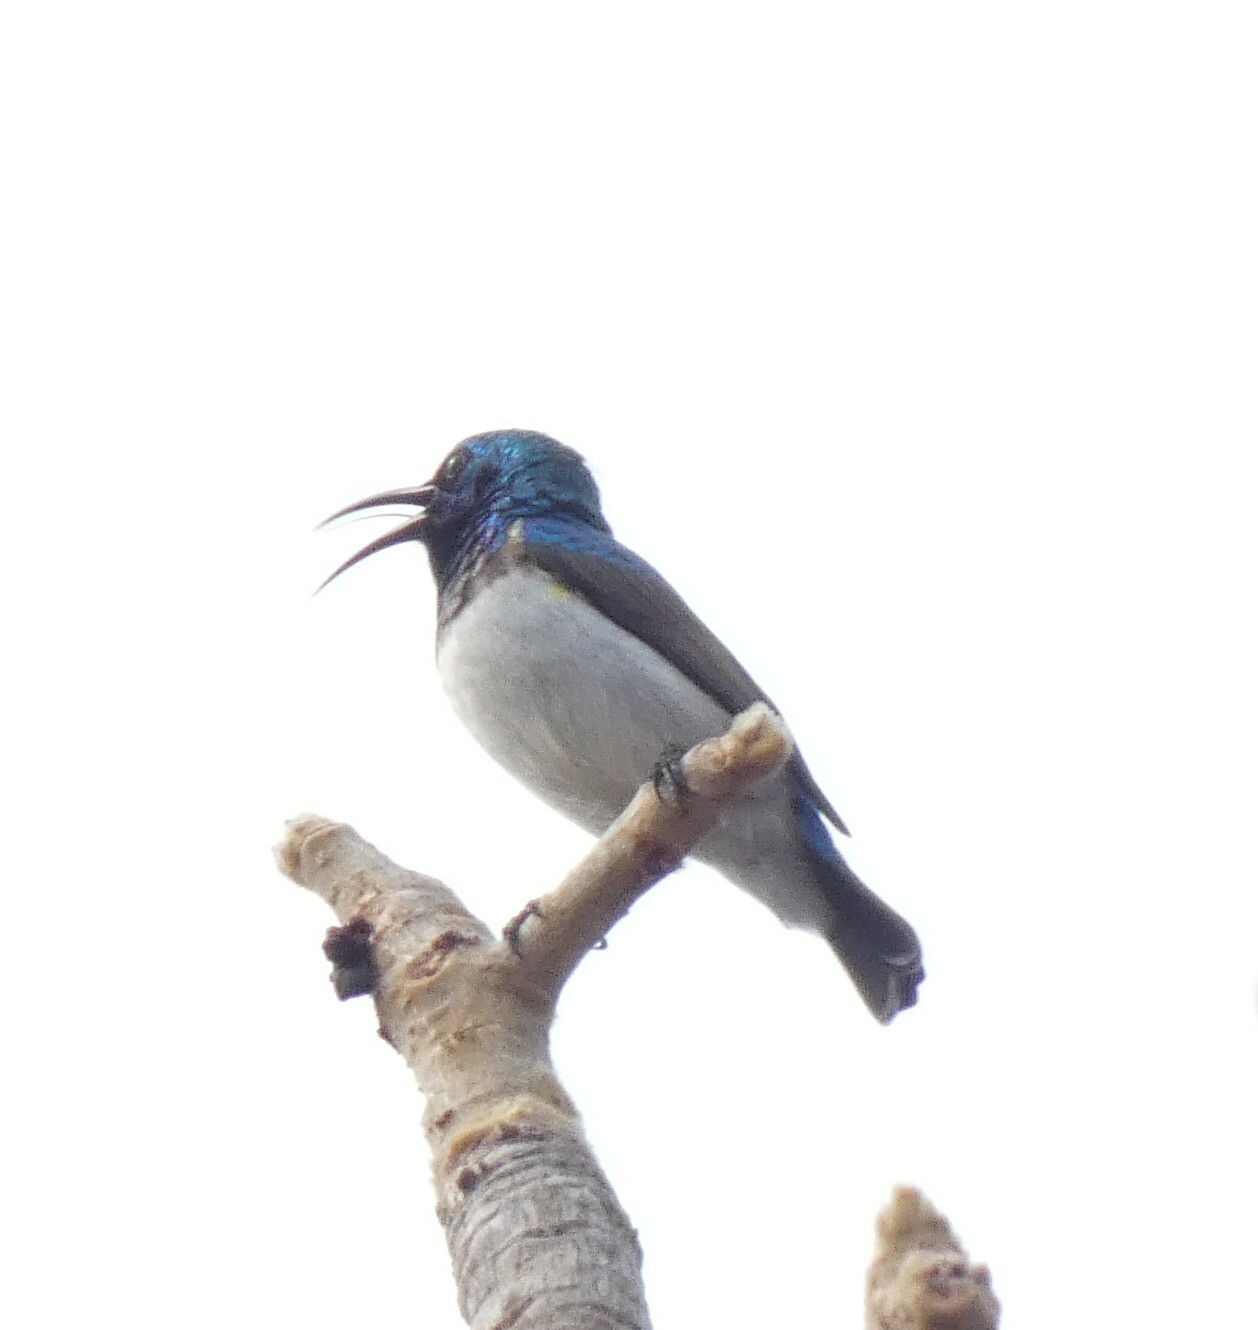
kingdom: Animalia
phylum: Chordata
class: Aves
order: Passeriformes
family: Nectariniidae
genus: Cinnyris
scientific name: Cinnyris talatala
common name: White-bellied sunbird
